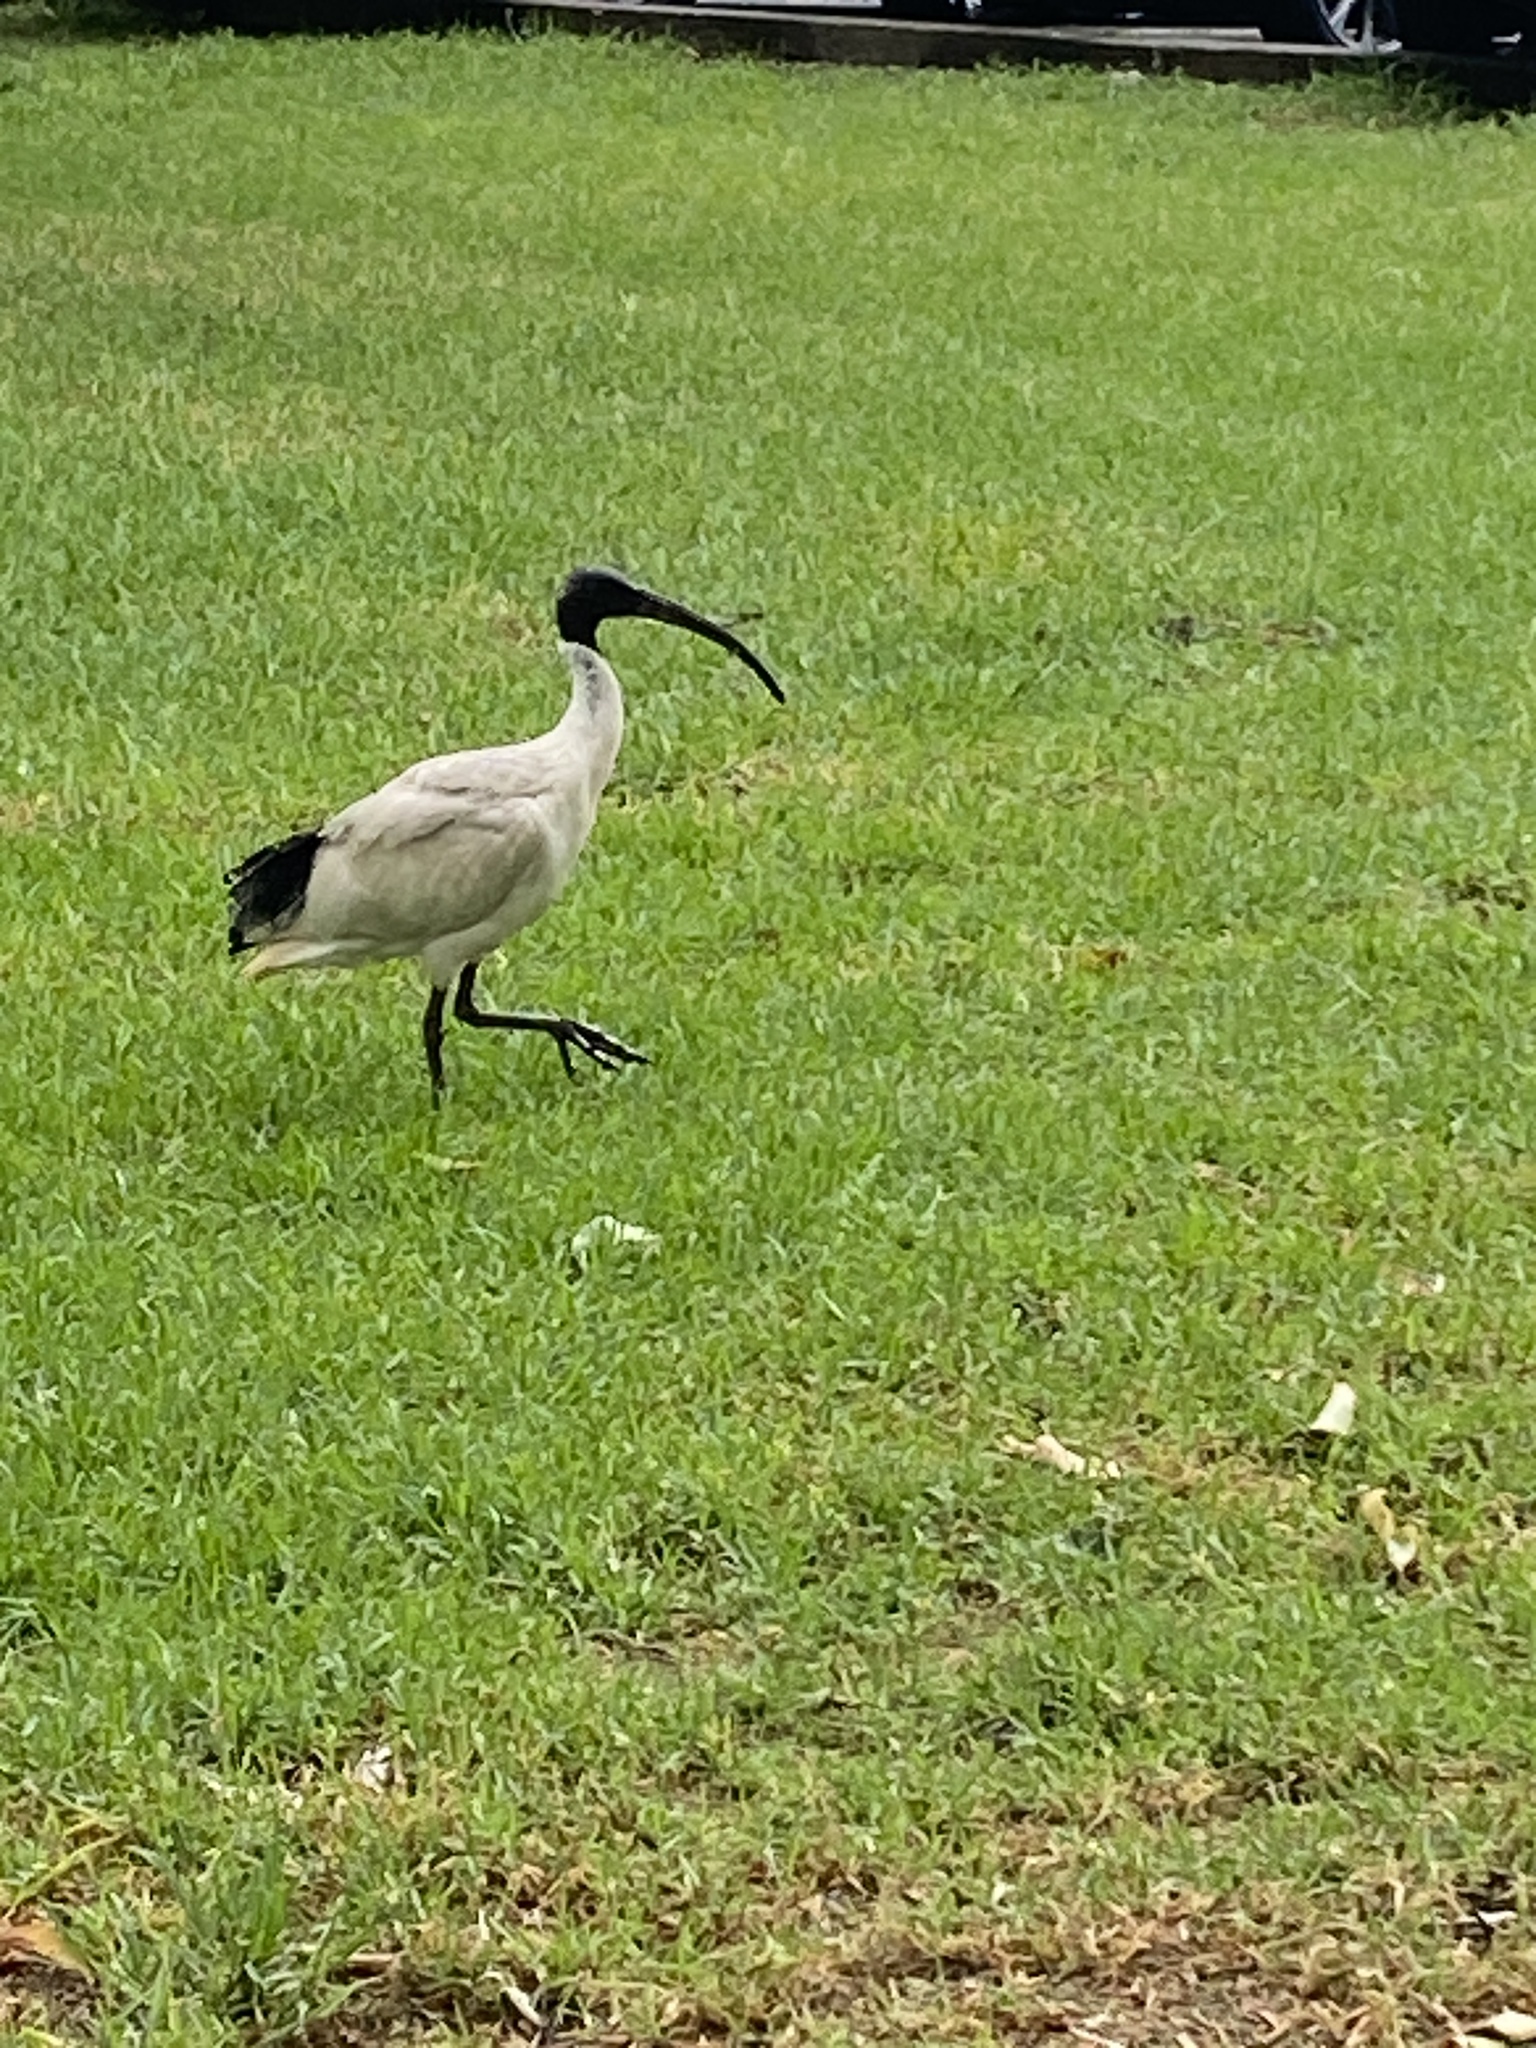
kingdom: Animalia
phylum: Chordata
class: Aves
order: Pelecaniformes
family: Threskiornithidae
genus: Threskiornis
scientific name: Threskiornis molucca
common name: Australian white ibis
